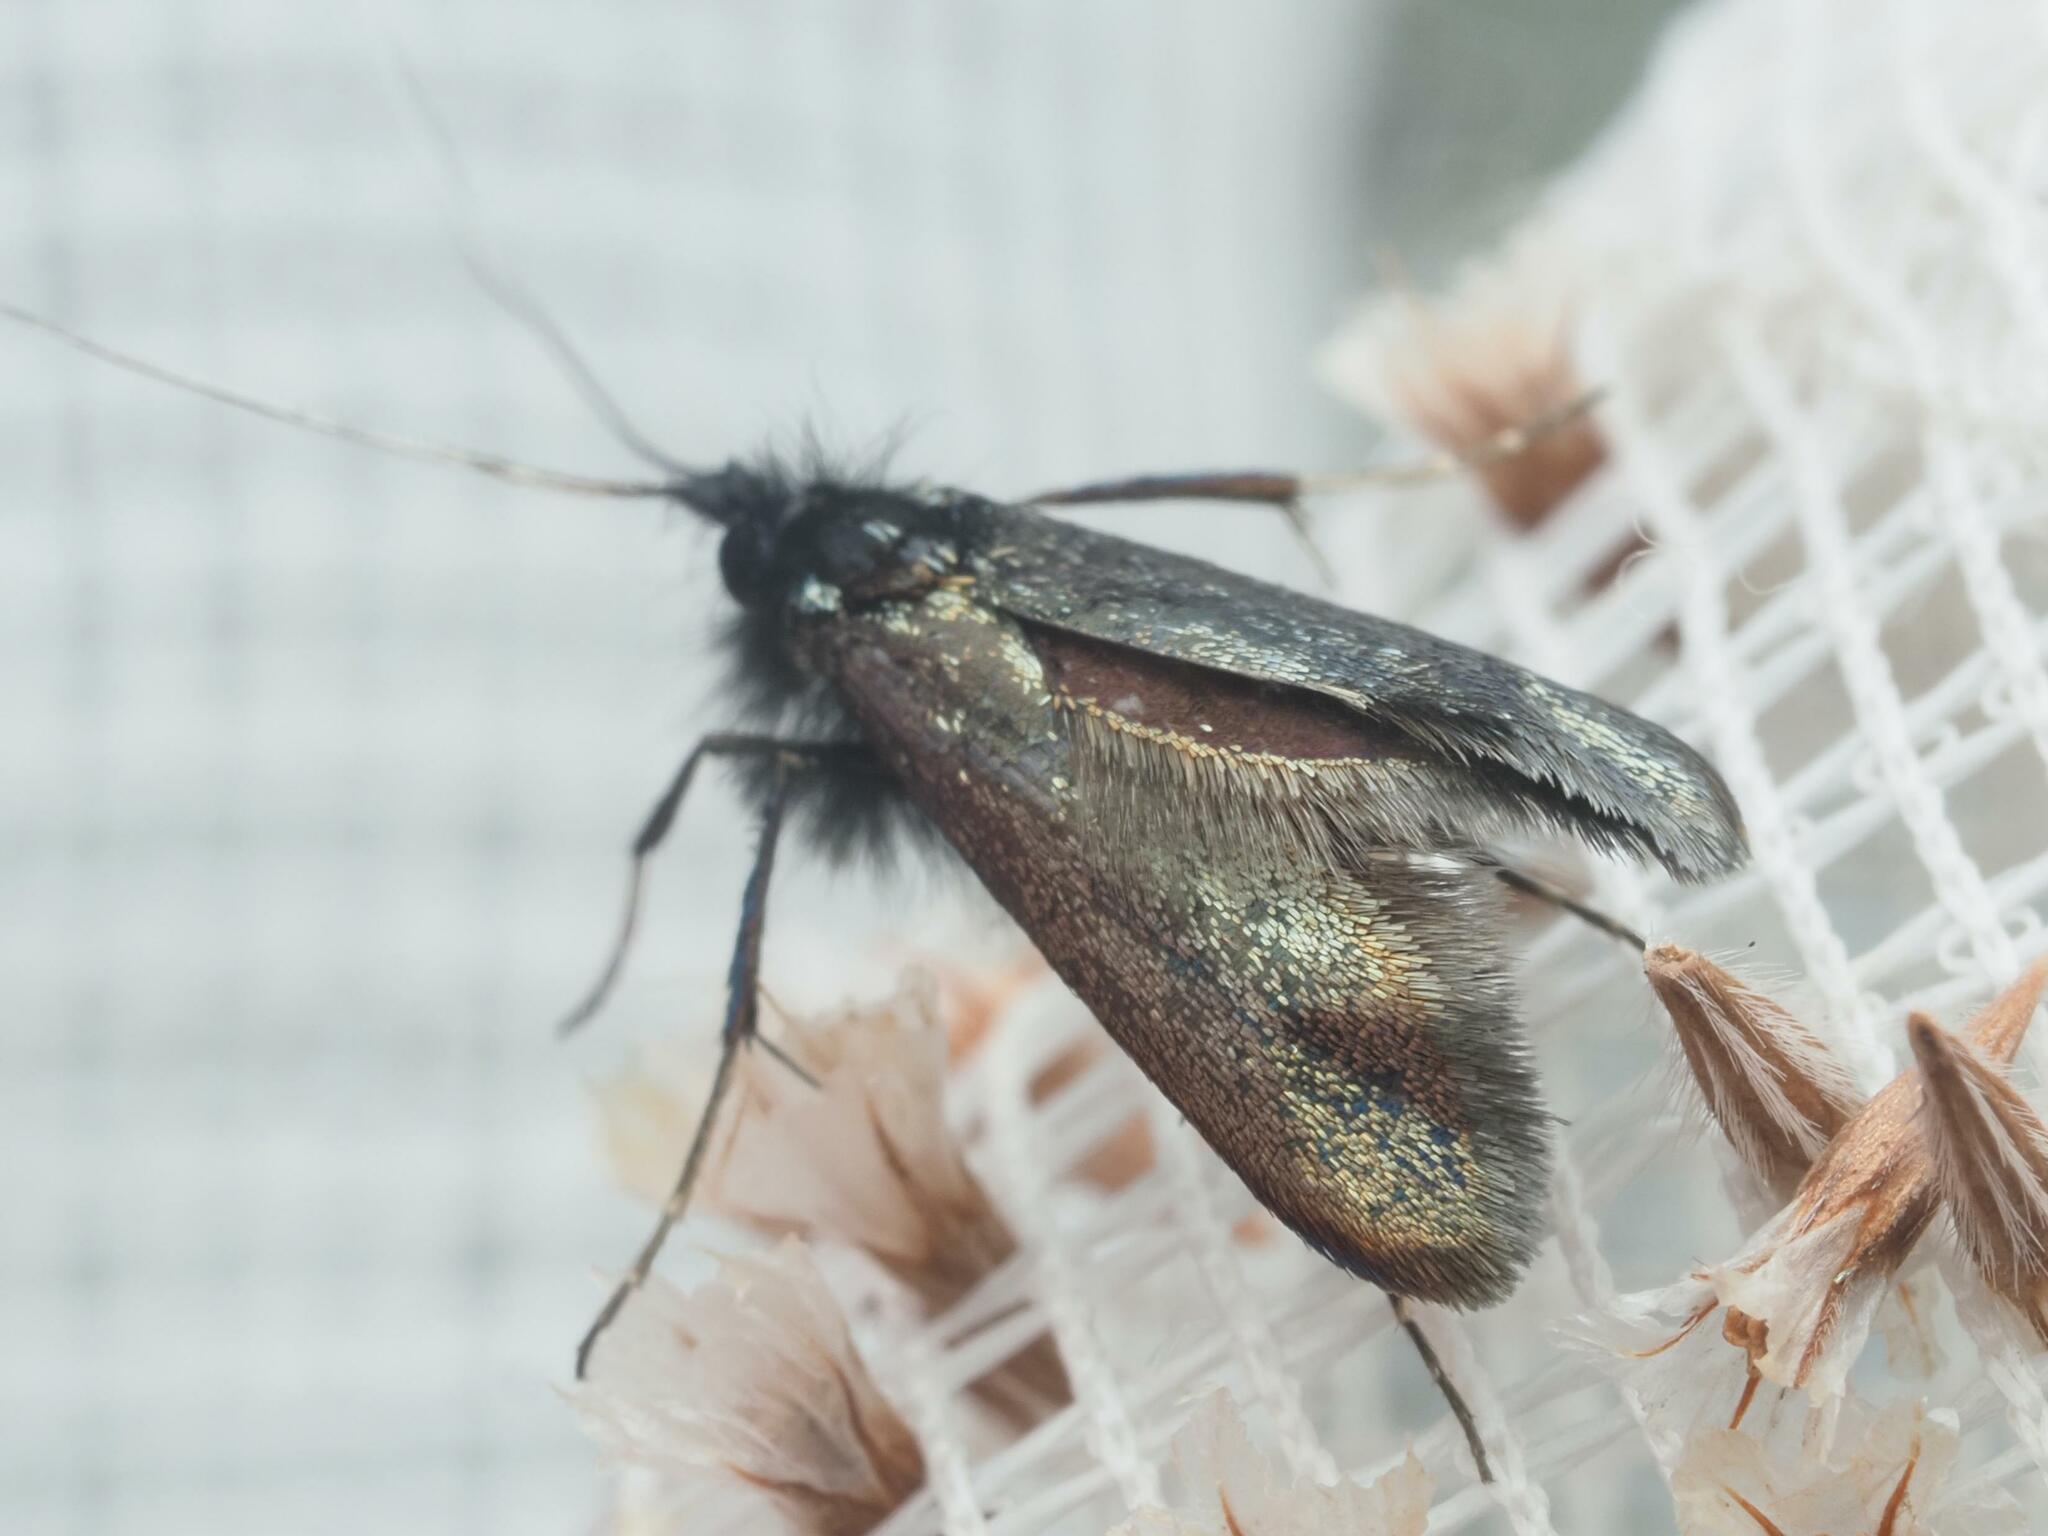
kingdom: Animalia
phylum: Arthropoda
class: Insecta
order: Lepidoptera
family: Adelidae
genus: Adela
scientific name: Adela viridella
